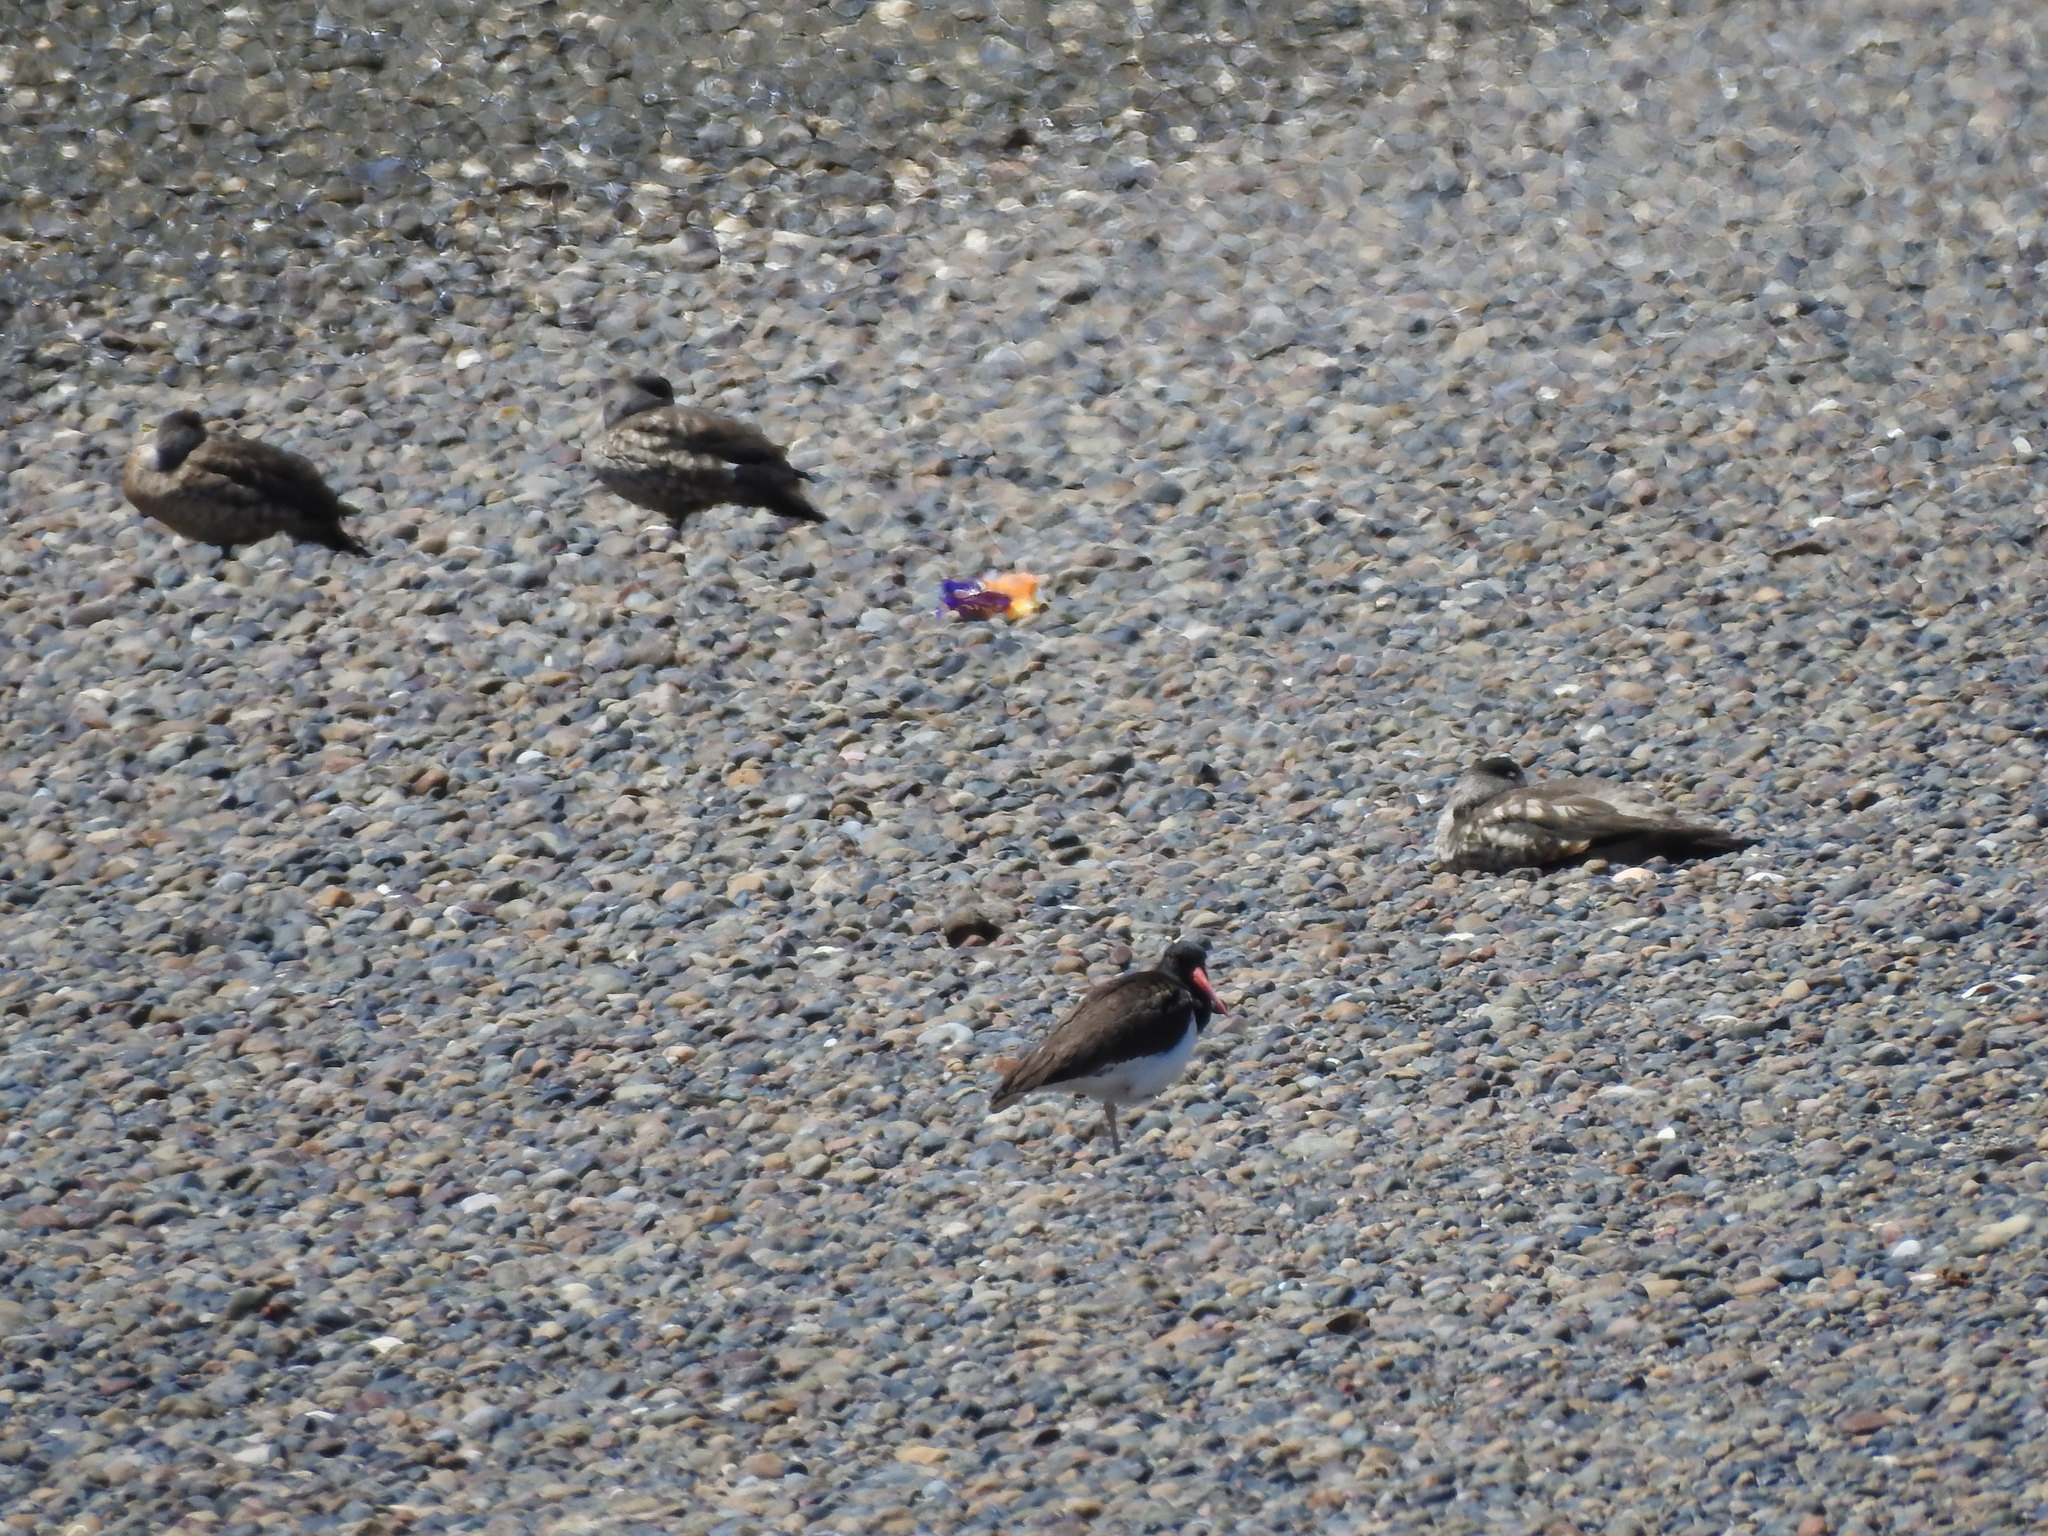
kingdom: Animalia
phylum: Chordata
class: Aves
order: Anseriformes
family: Anatidae
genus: Lophonetta
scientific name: Lophonetta specularioides
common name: Crested duck
